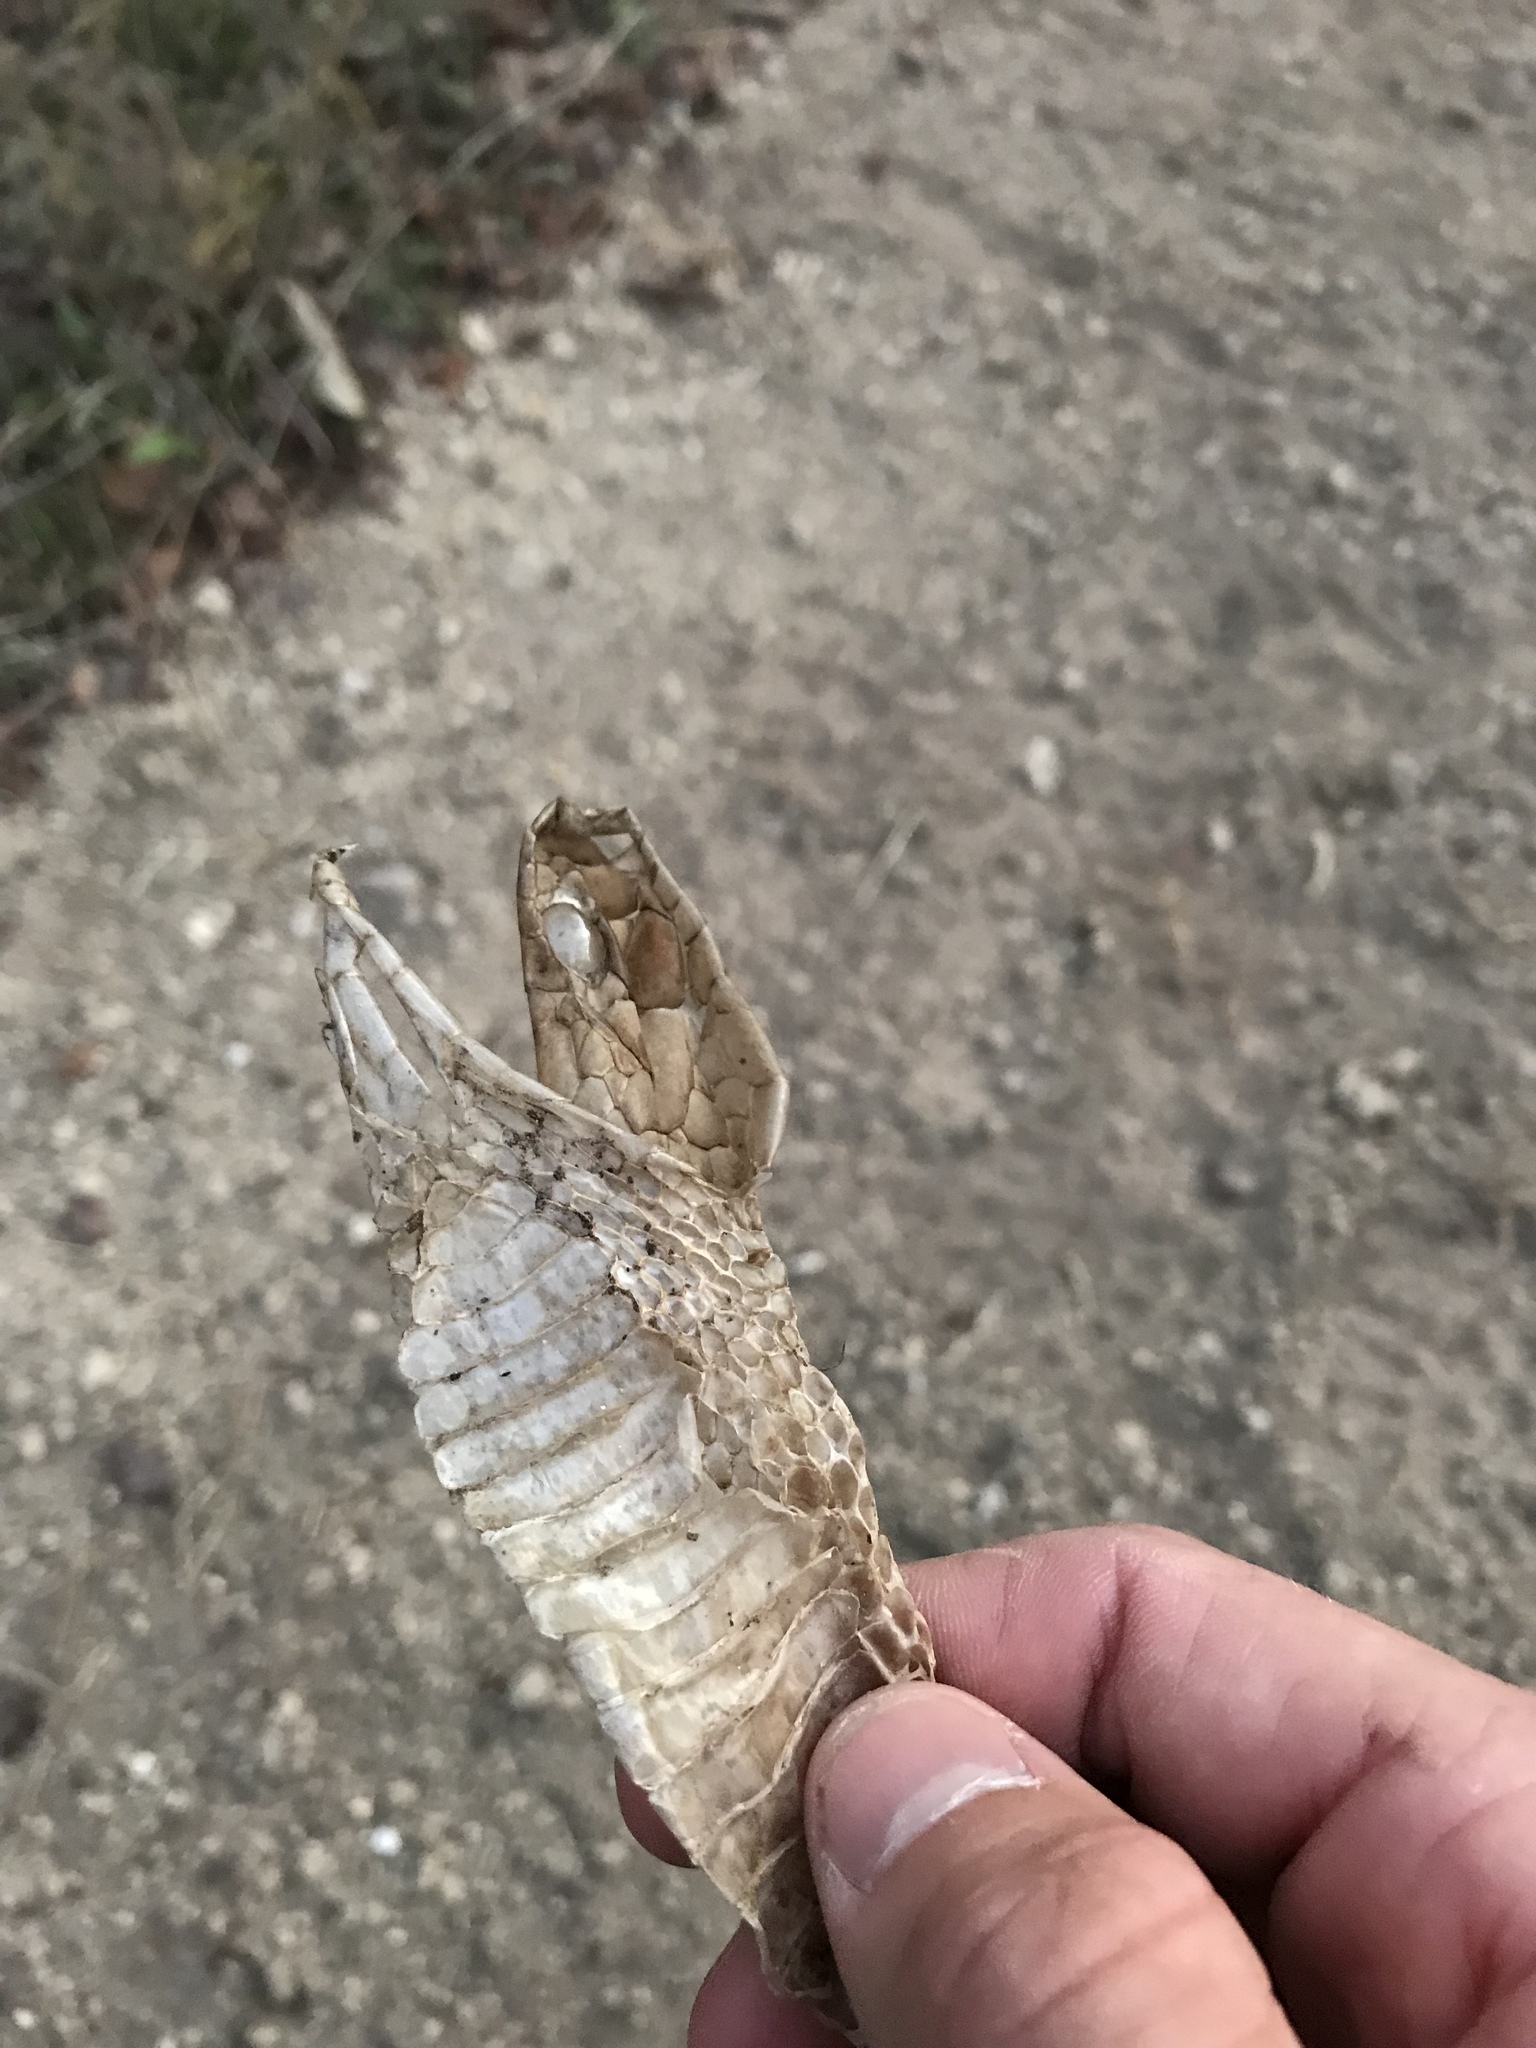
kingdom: Animalia
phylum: Chordata
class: Squamata
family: Colubridae
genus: Masticophis
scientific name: Masticophis flagellum
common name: Coachwhip
